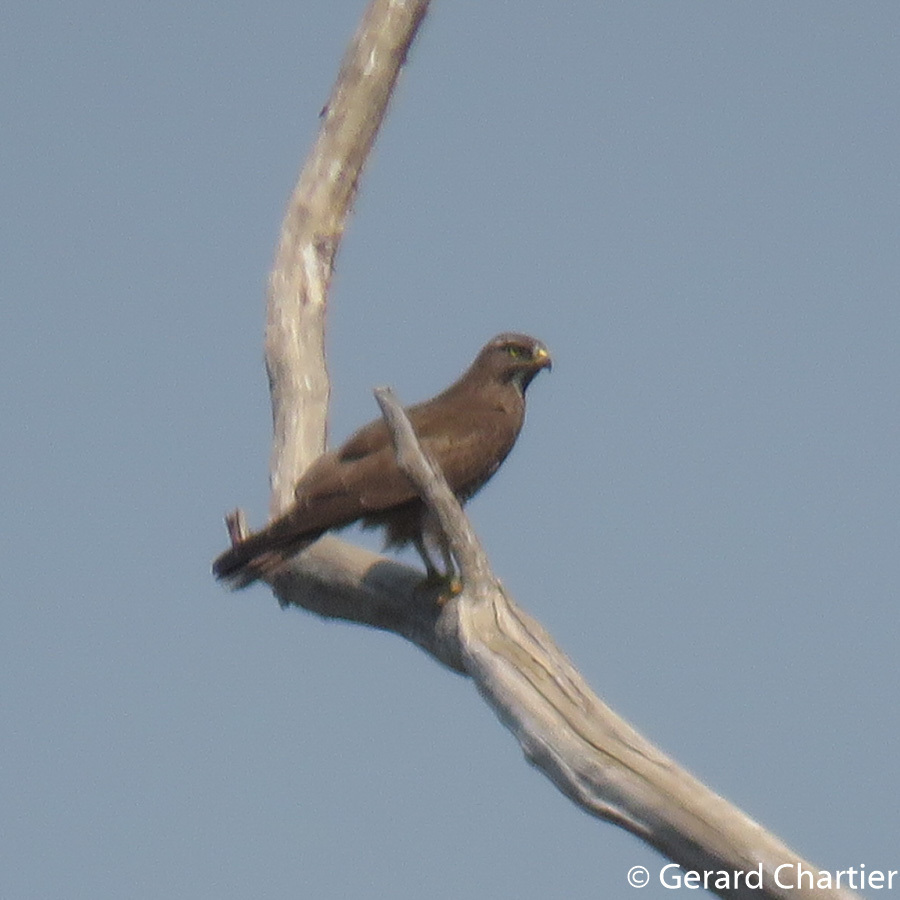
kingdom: Animalia
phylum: Chordata
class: Aves
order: Accipitriformes
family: Accipitridae
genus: Butastur
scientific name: Butastur indicus
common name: Grey-faced buzzard
